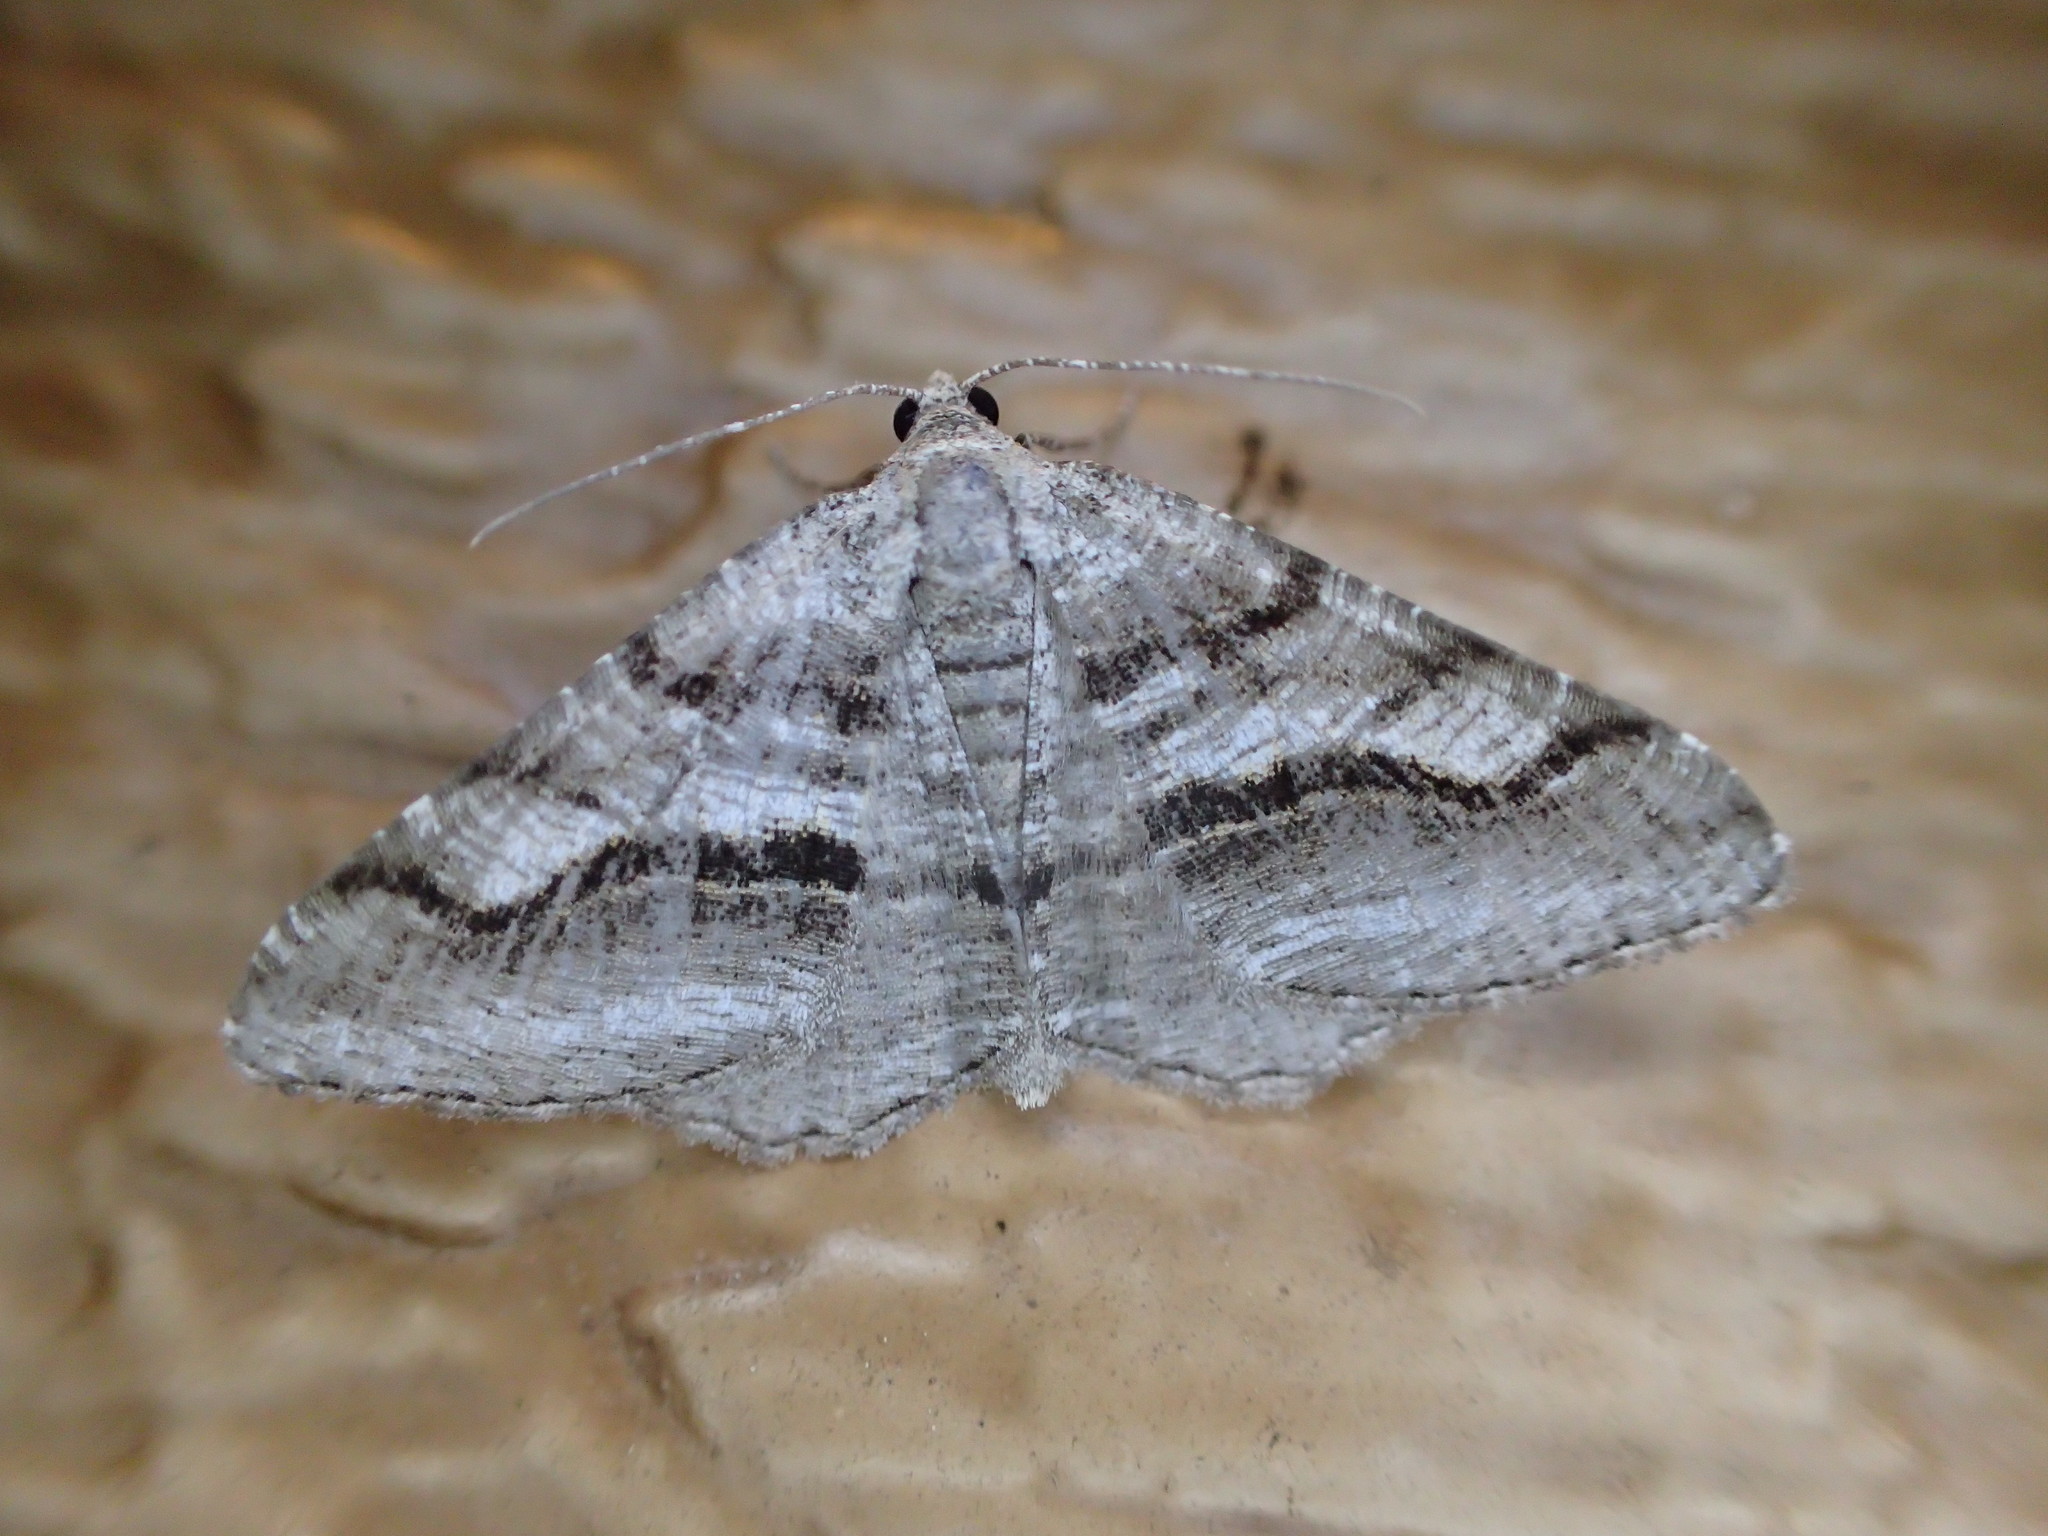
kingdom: Animalia
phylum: Arthropoda
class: Insecta
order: Lepidoptera
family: Geometridae
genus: Digrammia
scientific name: Digrammia continuata
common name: Curve-lined angle
